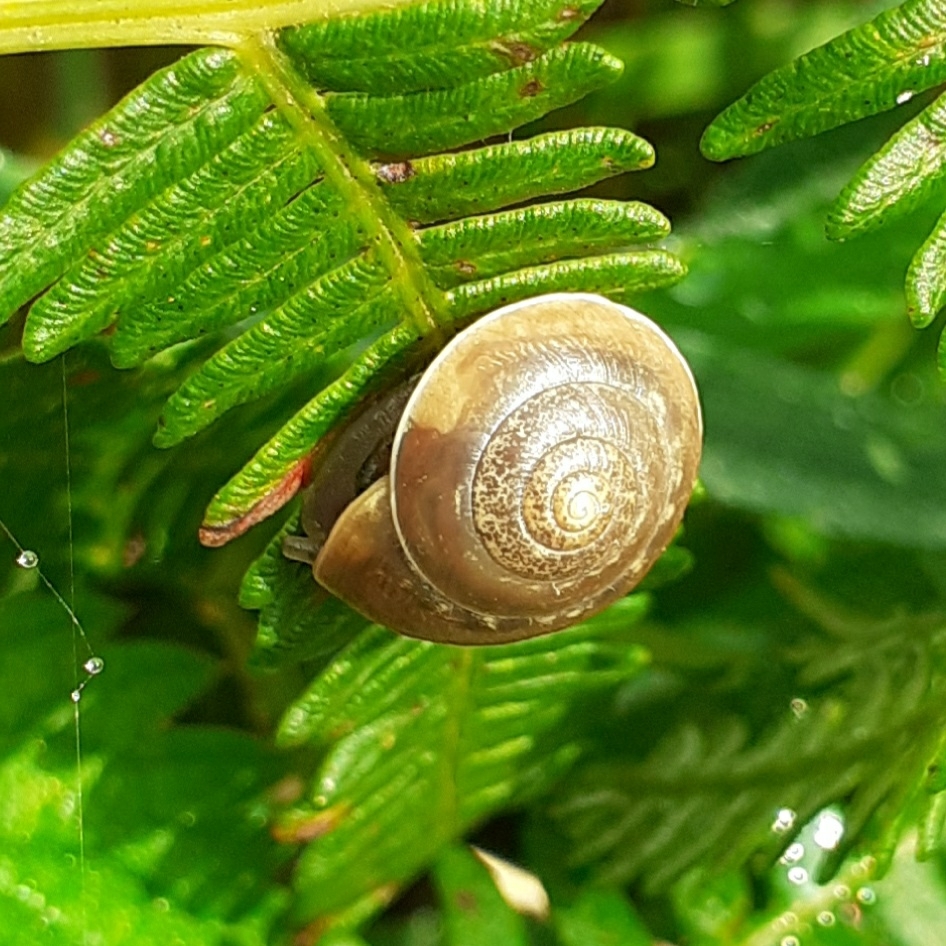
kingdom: Animalia
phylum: Mollusca
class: Gastropoda
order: Stylommatophora
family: Hygromiidae
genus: Hygromia
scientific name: Hygromia cinctella
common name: Girdled snail
